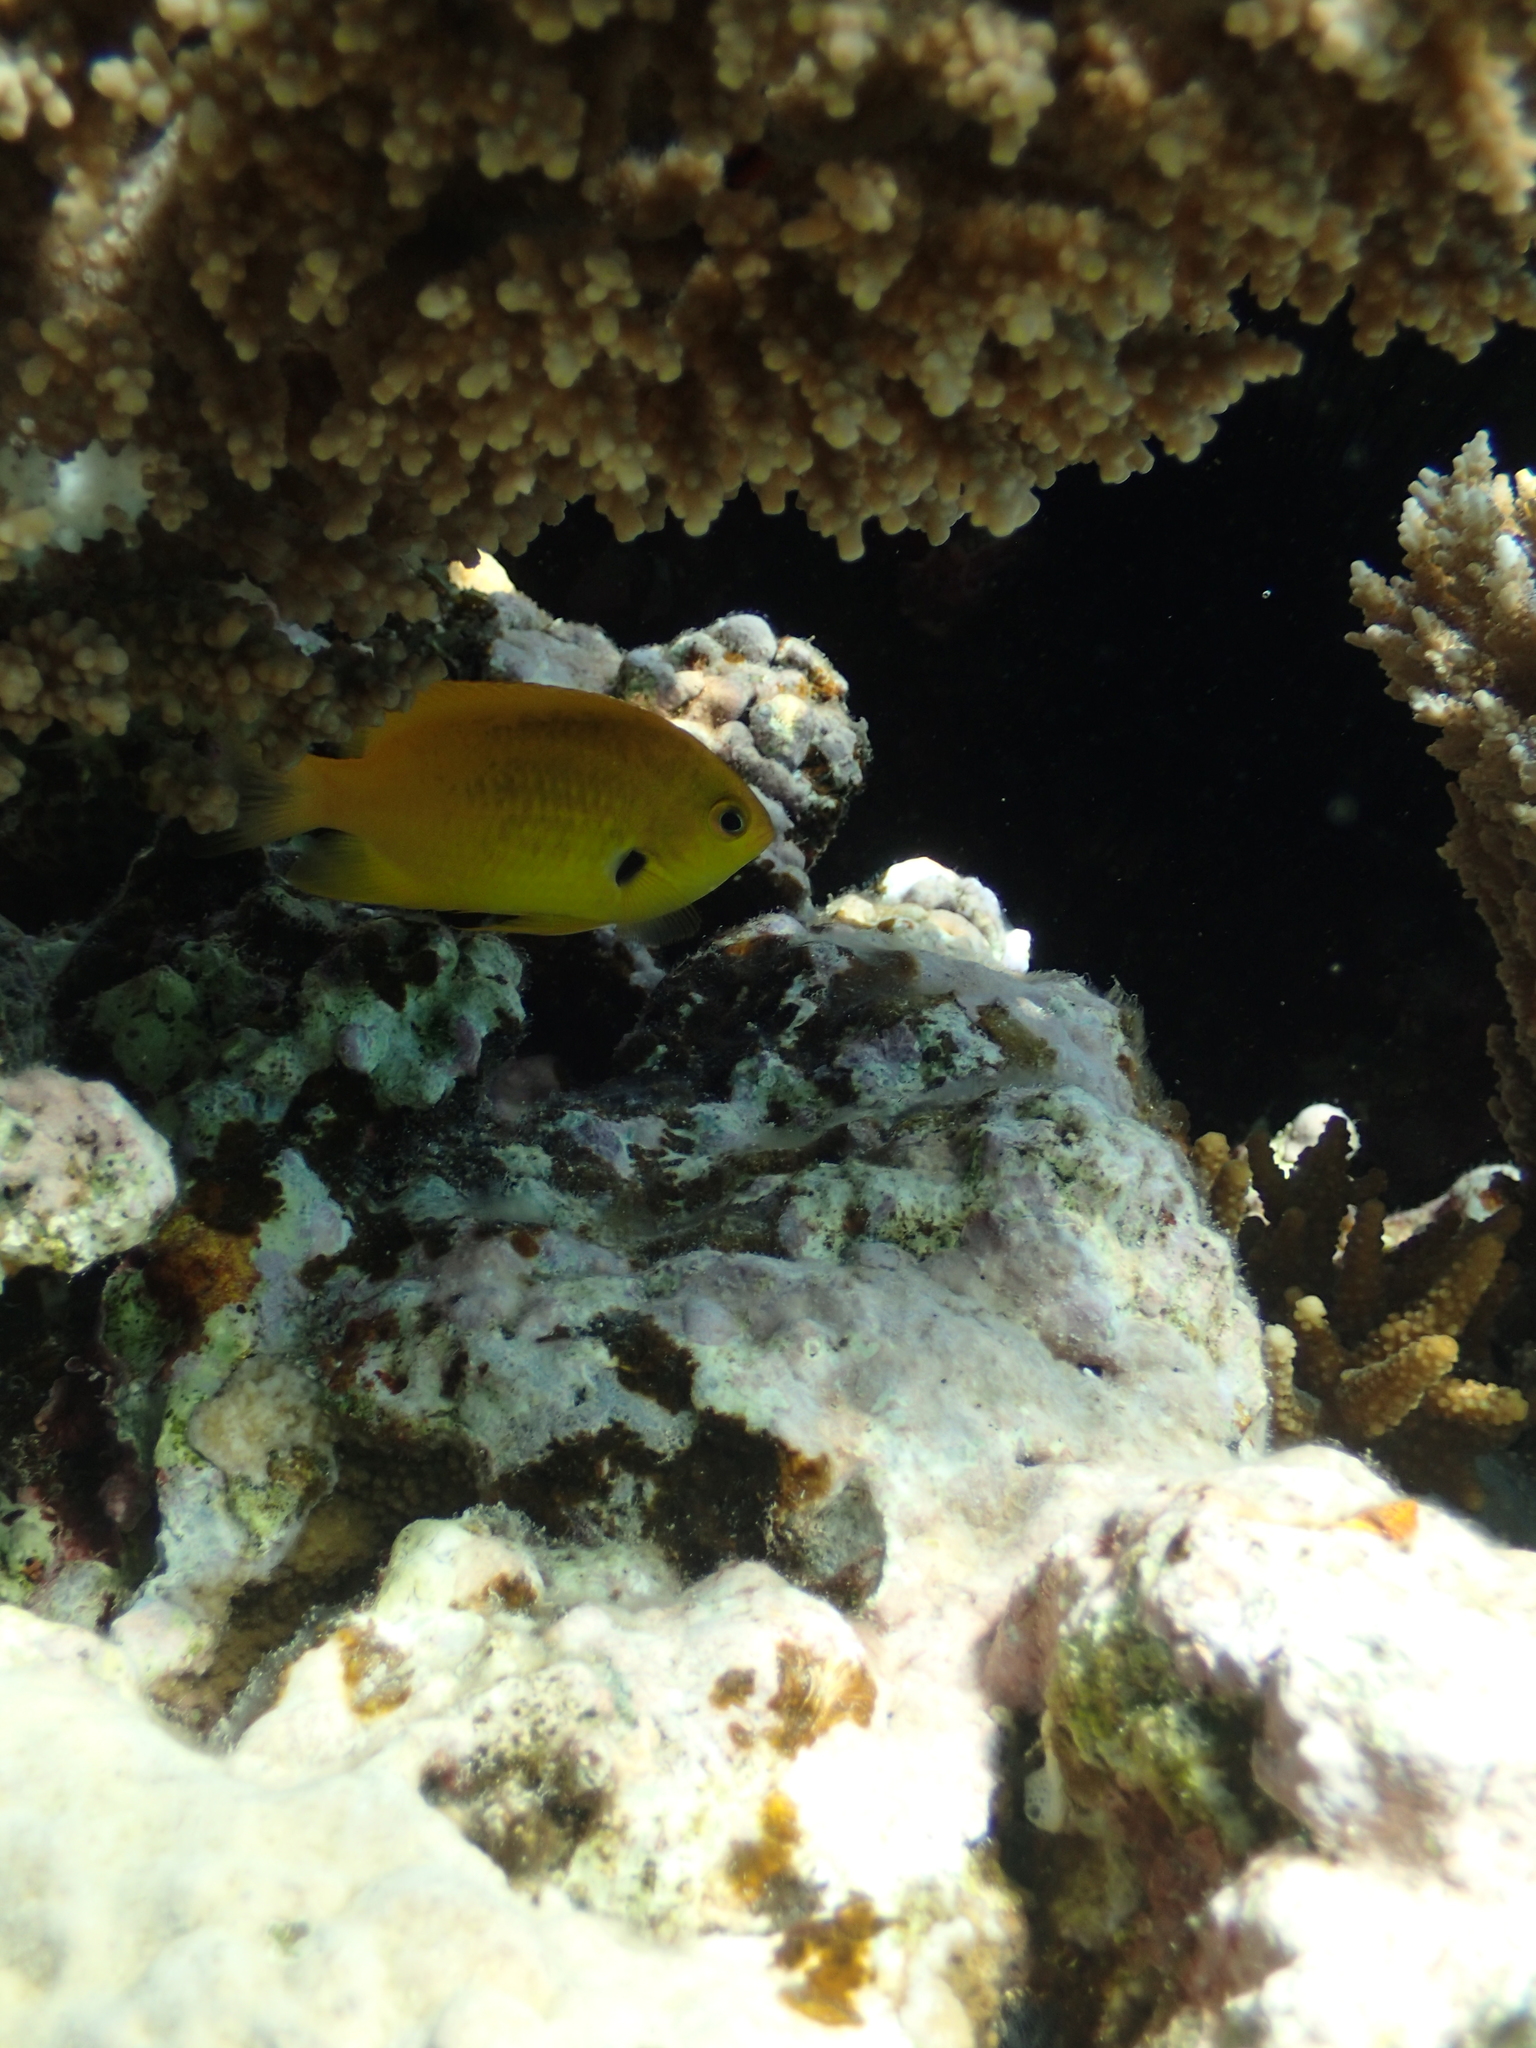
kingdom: Animalia
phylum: Chordata
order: Perciformes
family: Pomacentridae
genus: Pomacentrus
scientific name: Pomacentrus sulfureus
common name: Sulfur damsel
